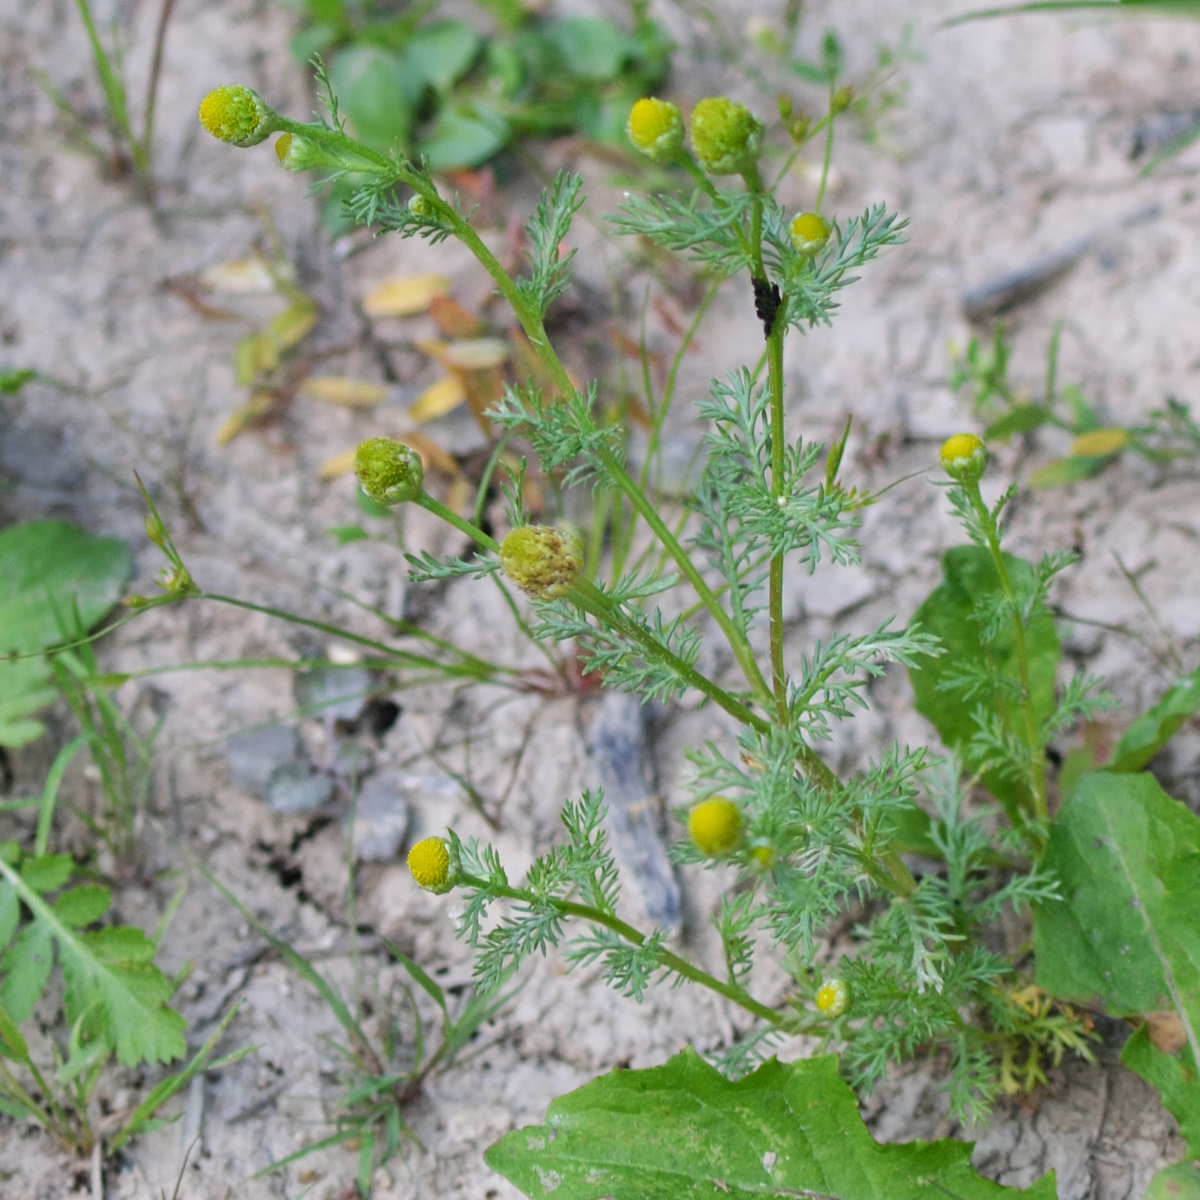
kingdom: Plantae
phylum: Tracheophyta
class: Magnoliopsida
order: Asterales
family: Asteraceae
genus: Matricaria
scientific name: Matricaria discoidea
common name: Disc mayweed
